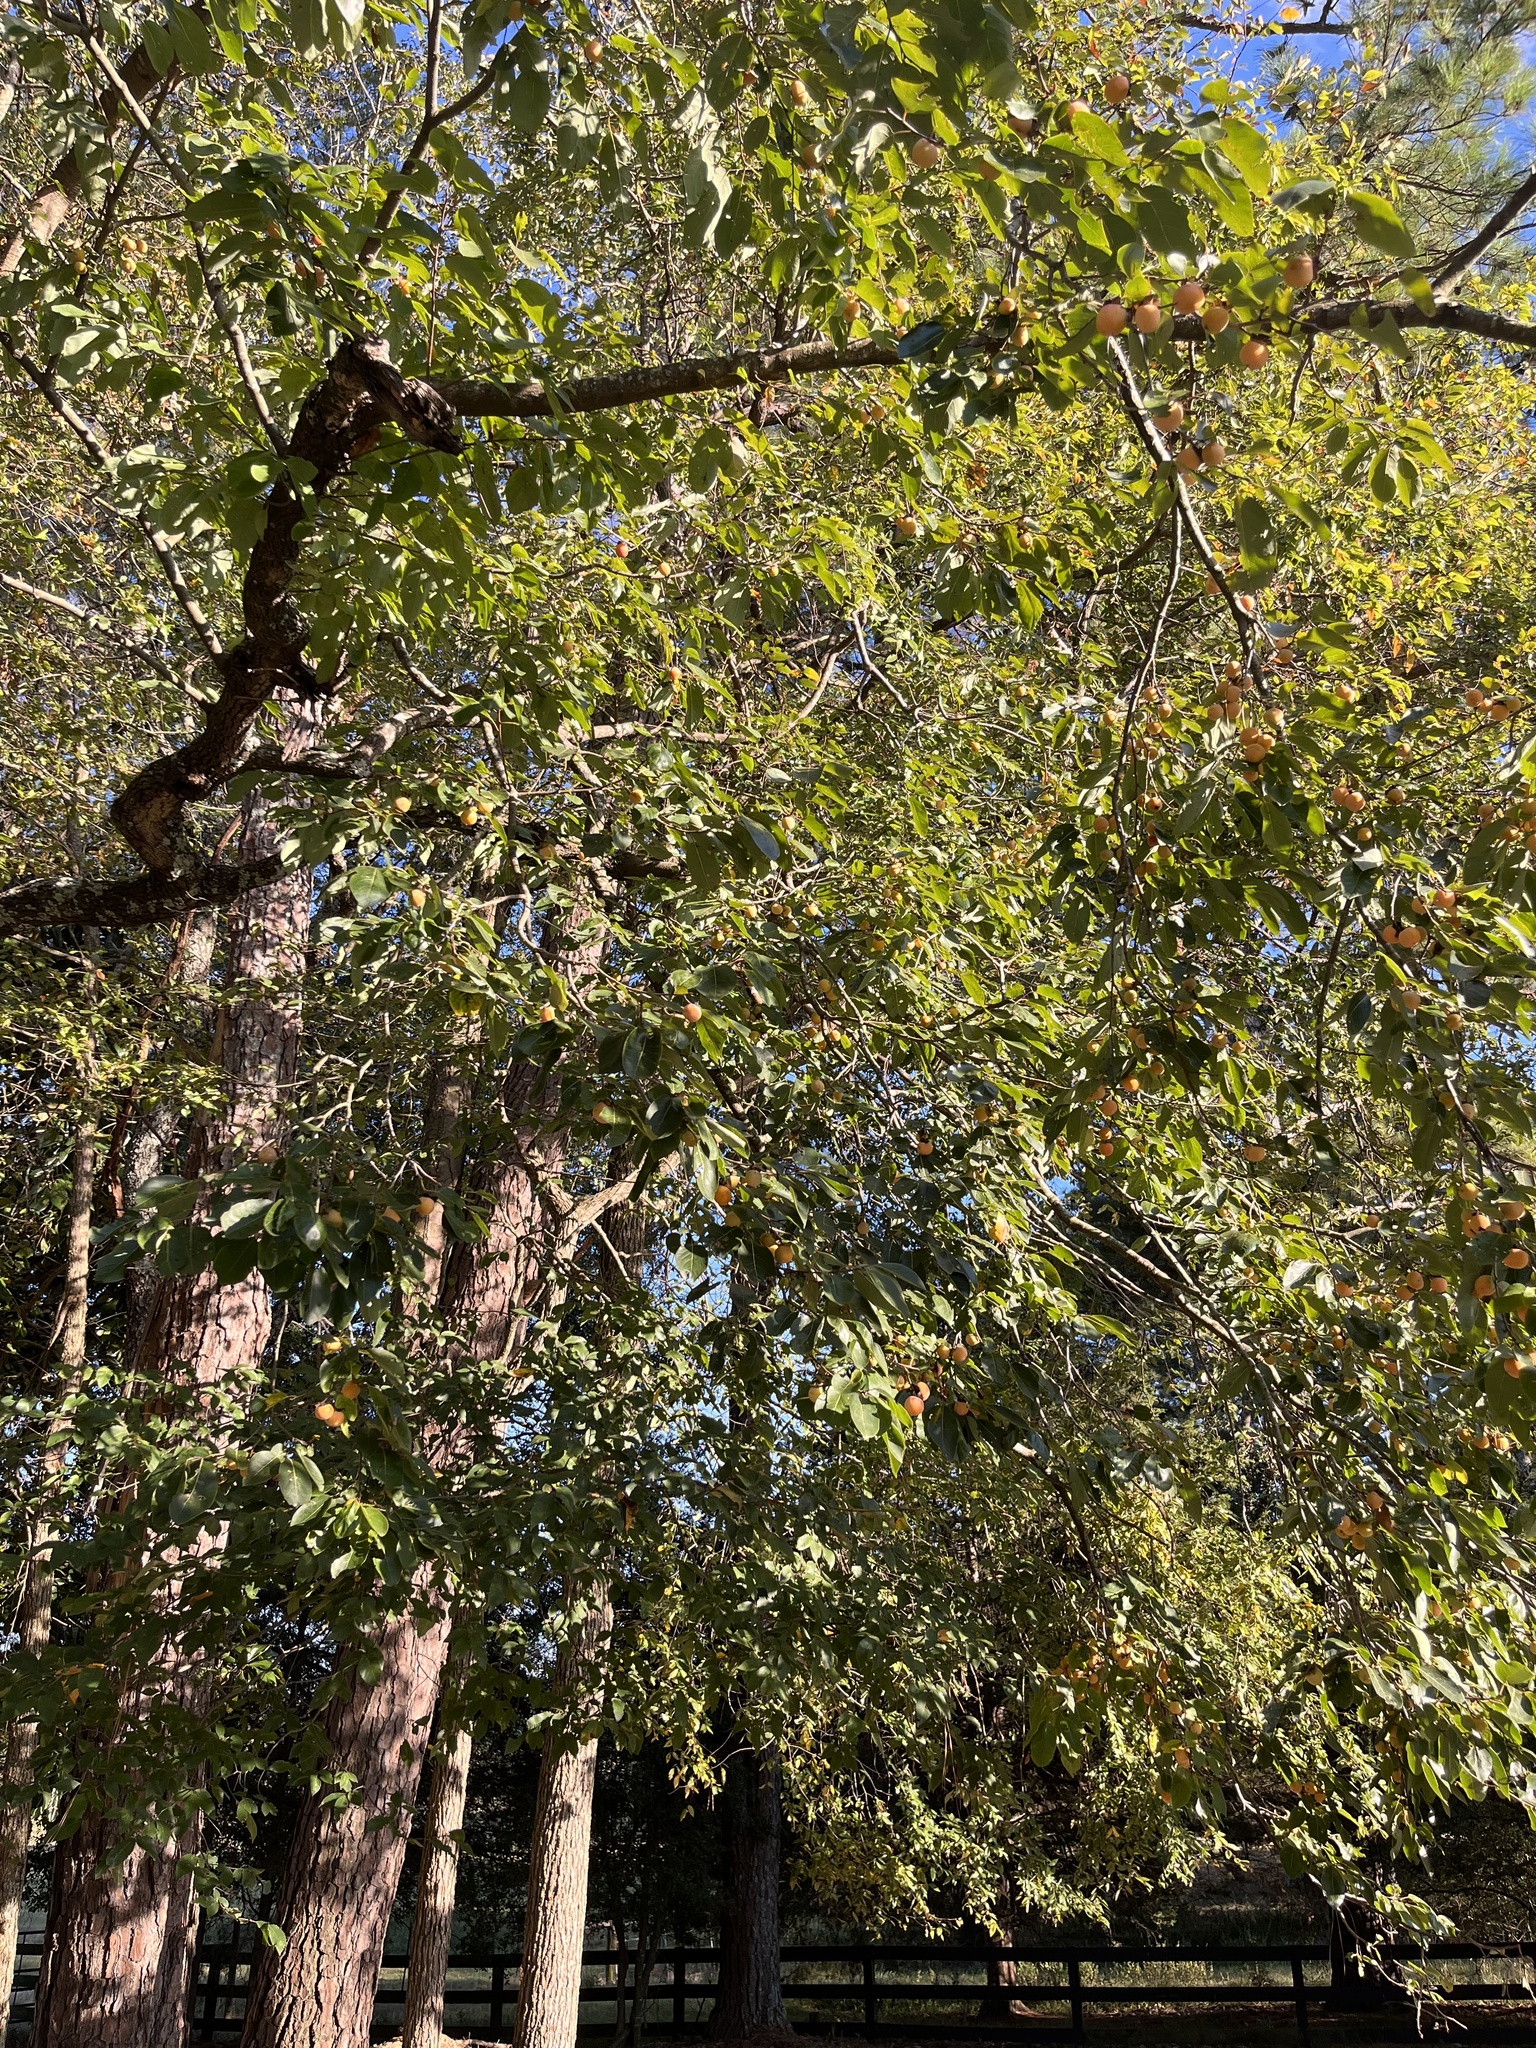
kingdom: Plantae
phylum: Tracheophyta
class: Magnoliopsida
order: Ericales
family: Ebenaceae
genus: Diospyros
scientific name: Diospyros virginiana
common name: Persimmon
